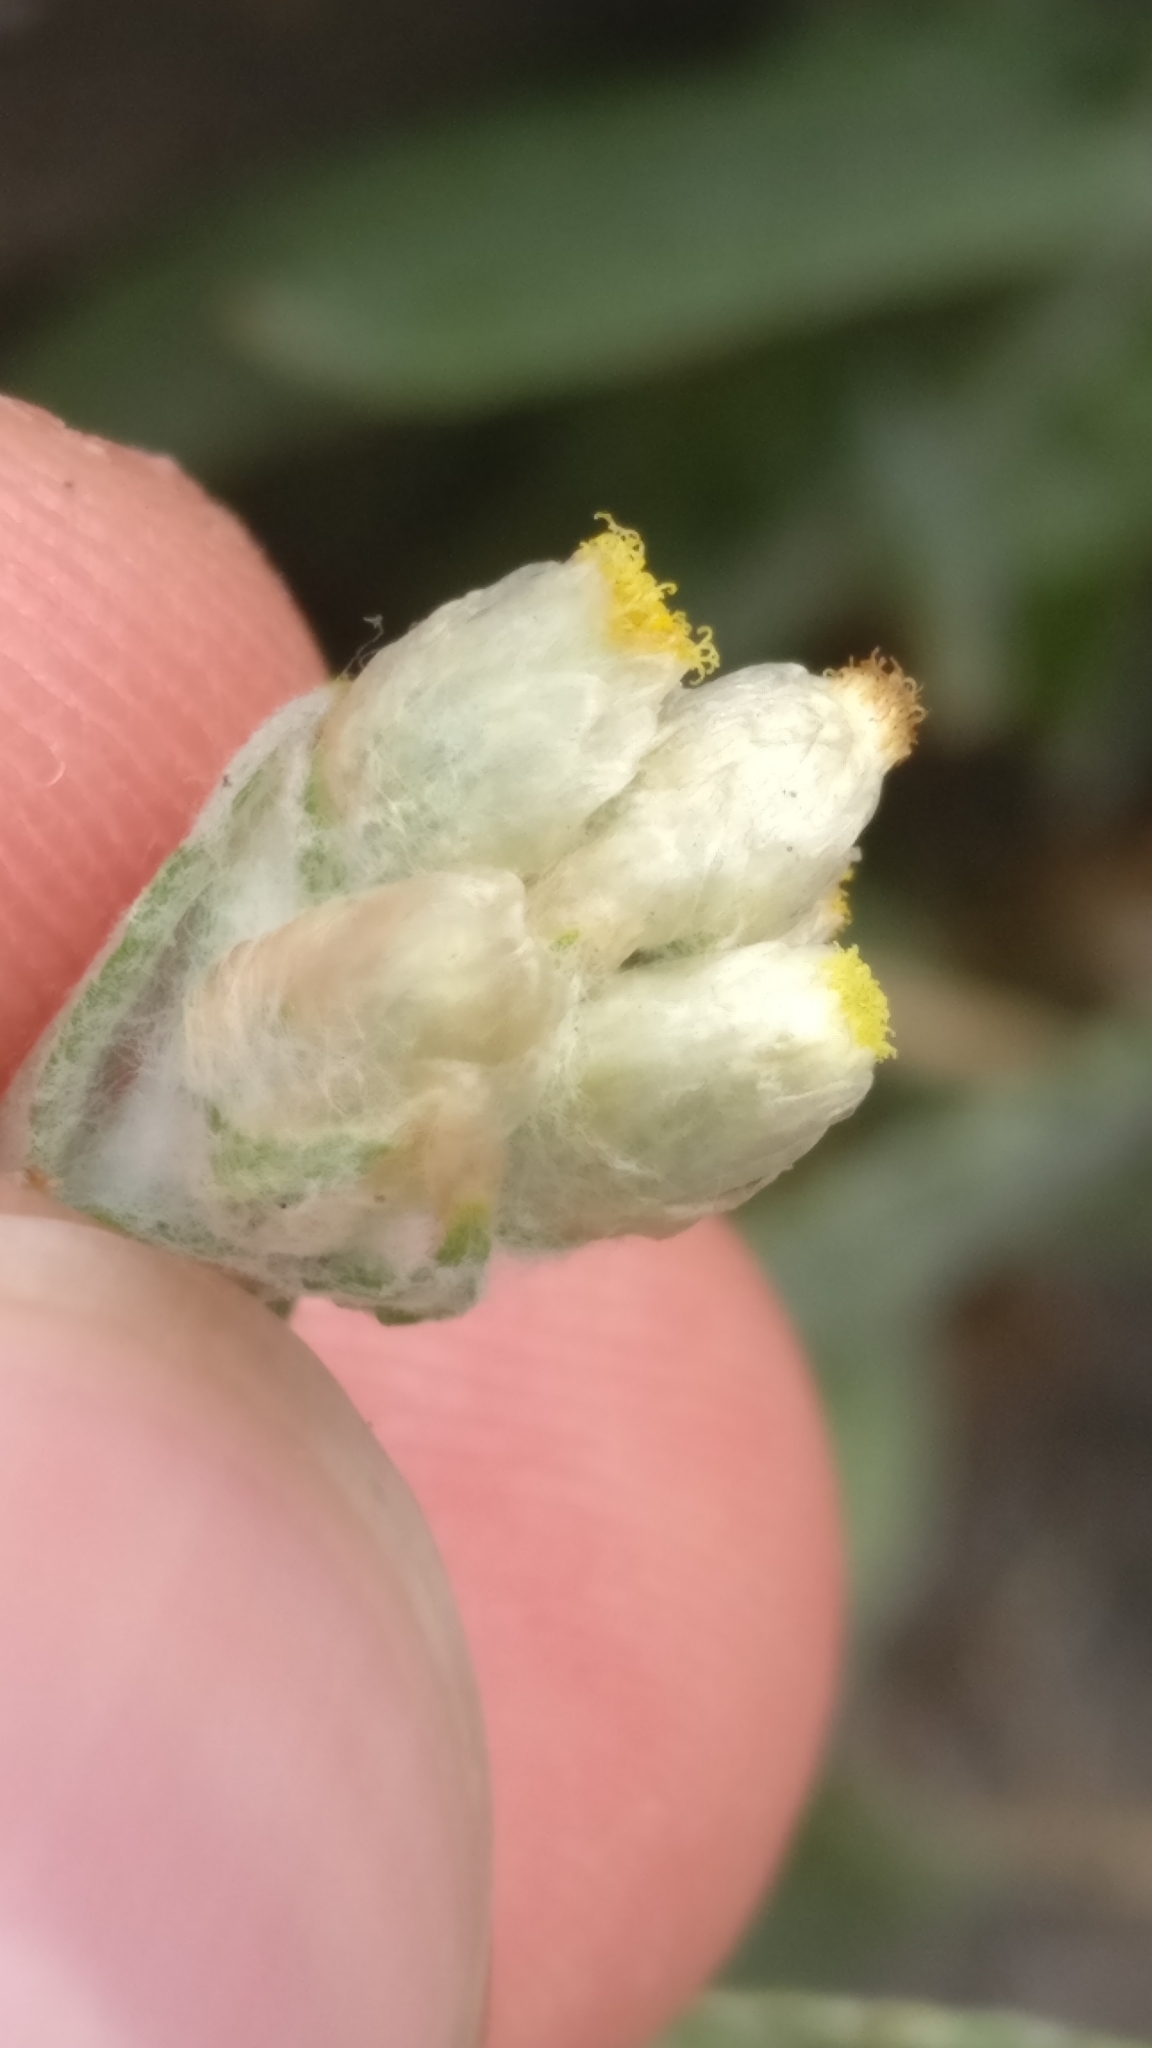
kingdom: Plantae
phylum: Tracheophyta
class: Magnoliopsida
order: Asterales
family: Asteraceae
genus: Helichrysum
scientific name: Helichrysum luteoalbum
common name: Daisy
